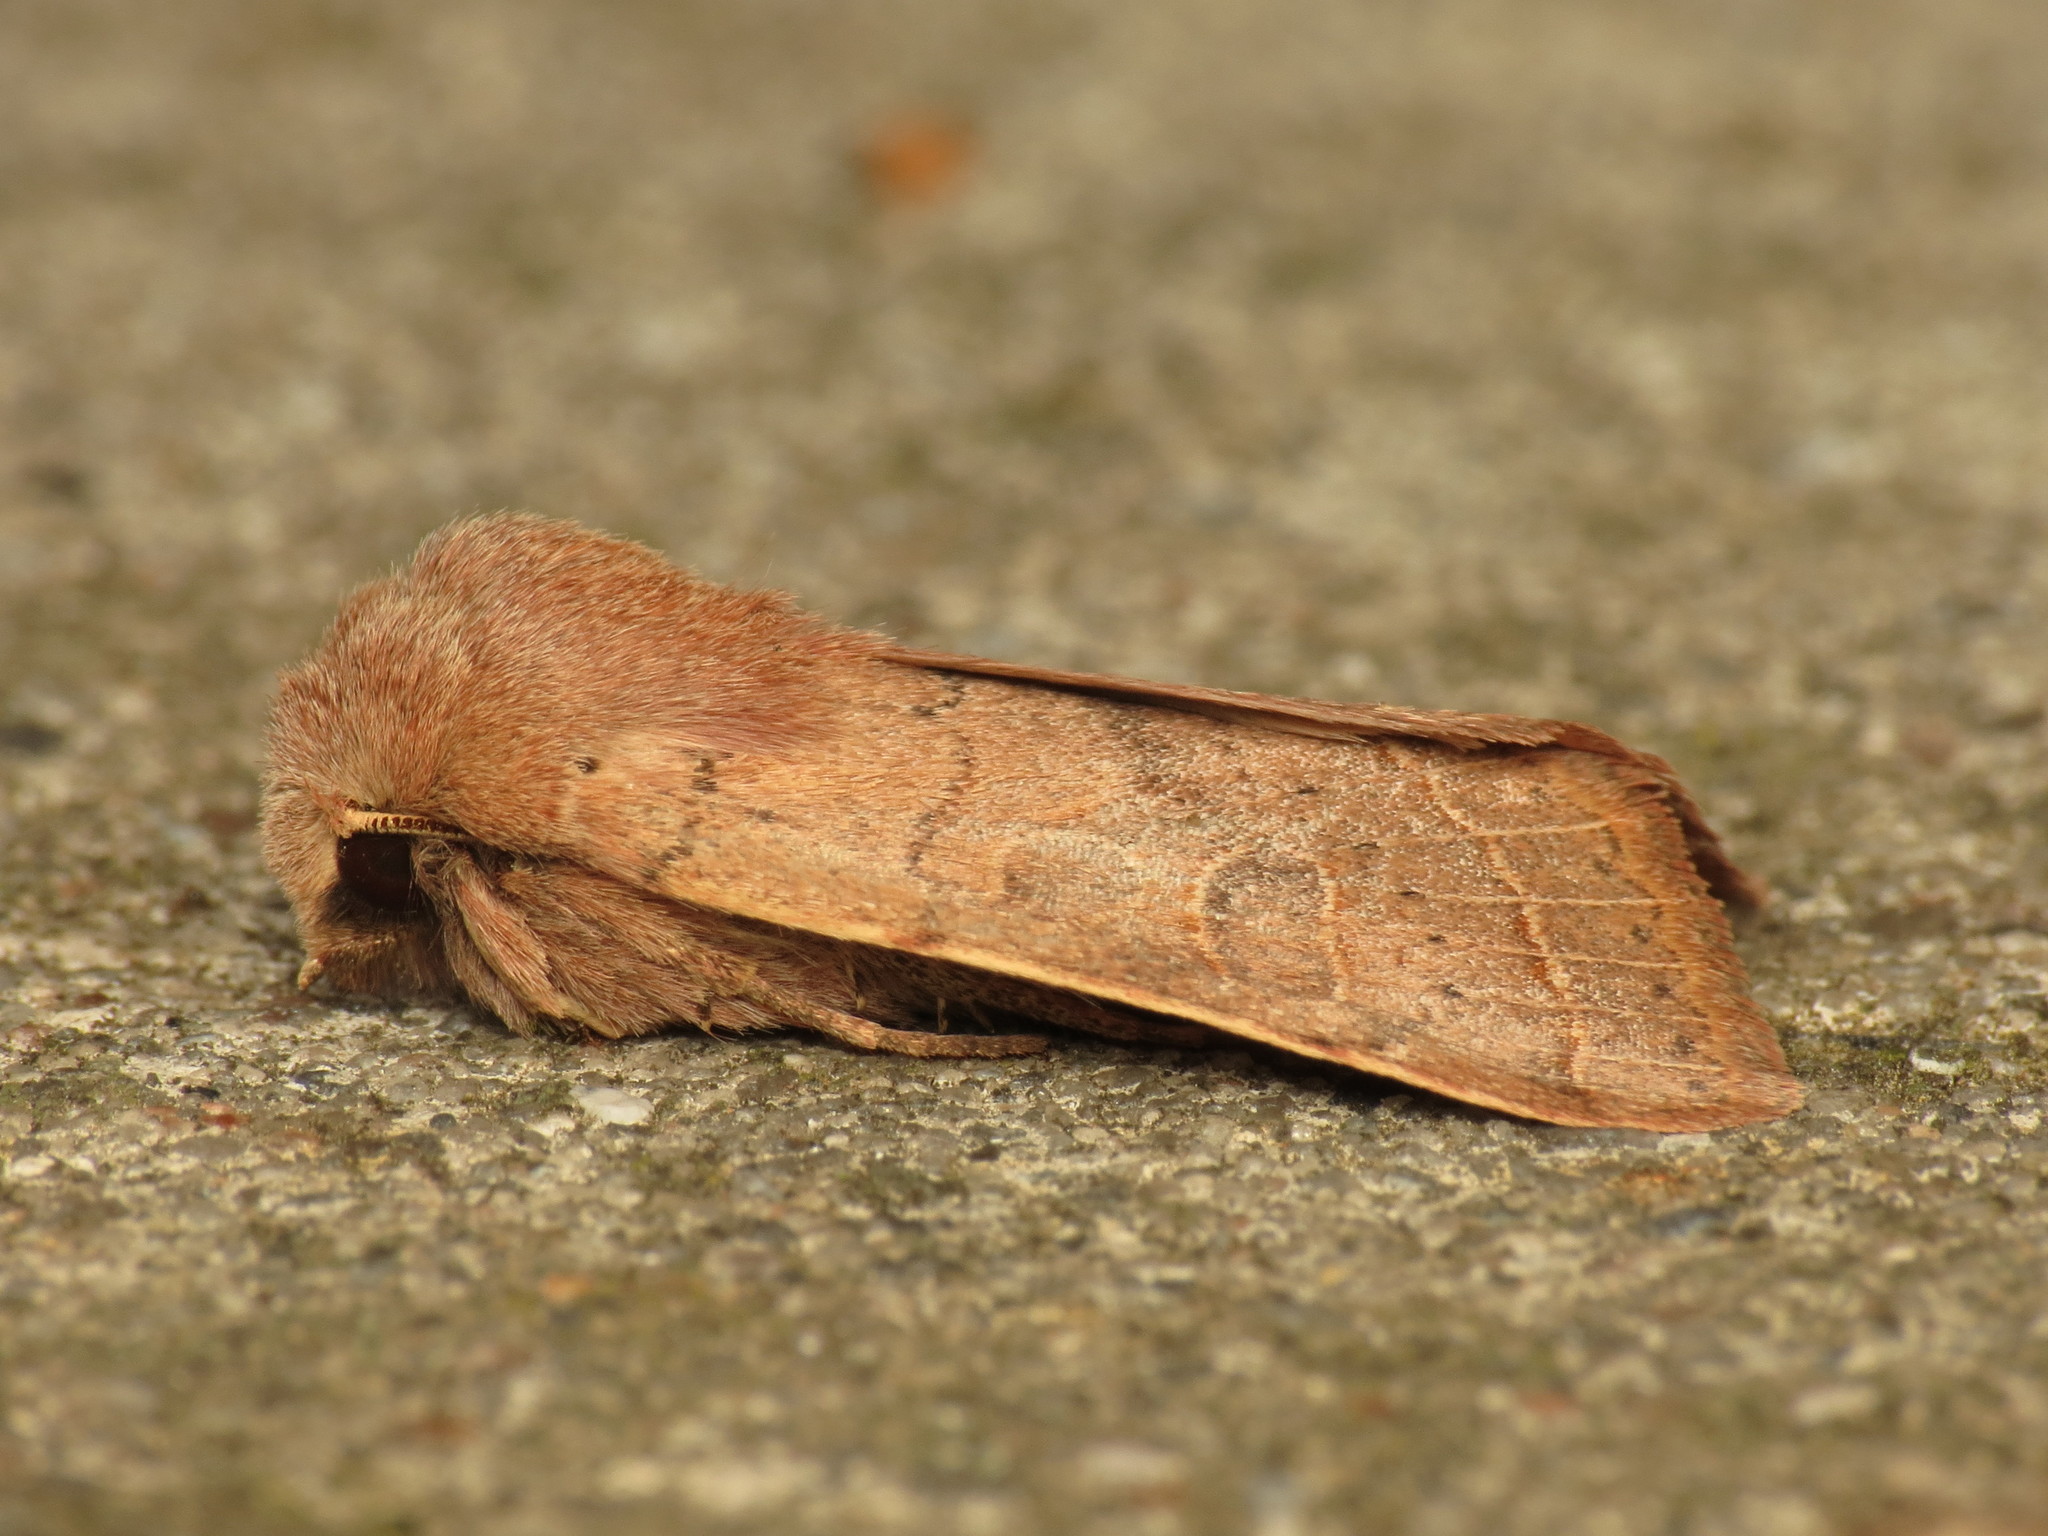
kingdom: Animalia
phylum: Arthropoda
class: Insecta
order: Lepidoptera
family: Noctuidae
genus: Orthosia
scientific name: Orthosia cerasi
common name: Common quaker
